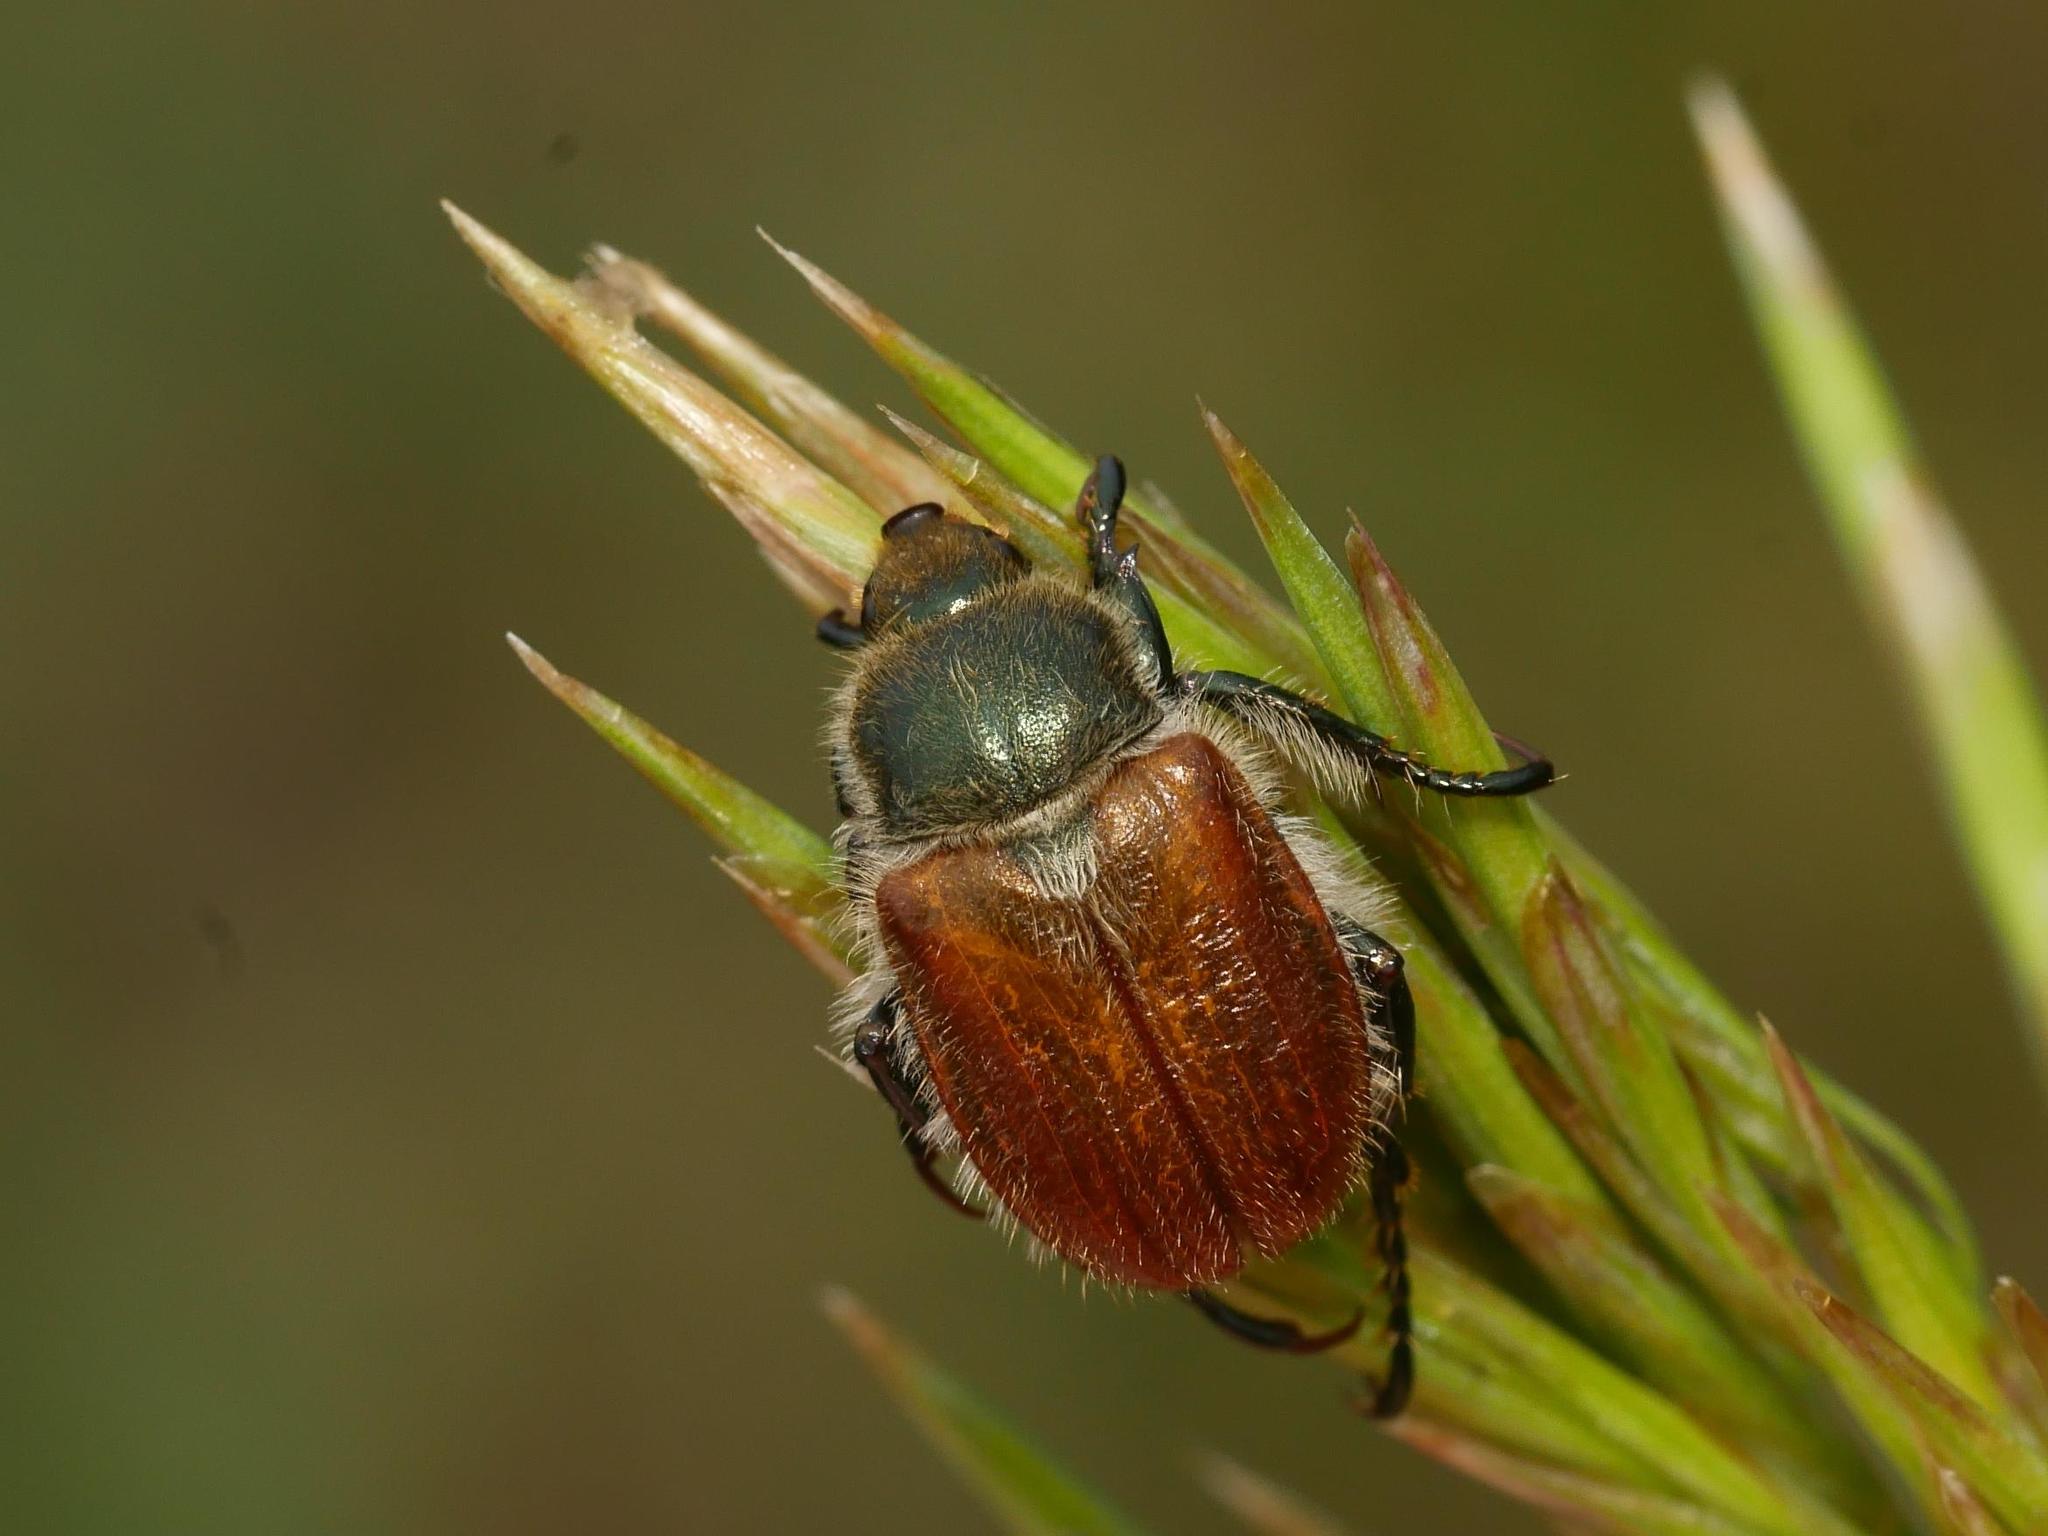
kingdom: Animalia
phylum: Arthropoda
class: Insecta
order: Coleoptera
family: Scarabaeidae
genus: Chaetopteroplia
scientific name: Chaetopteroplia segetum
